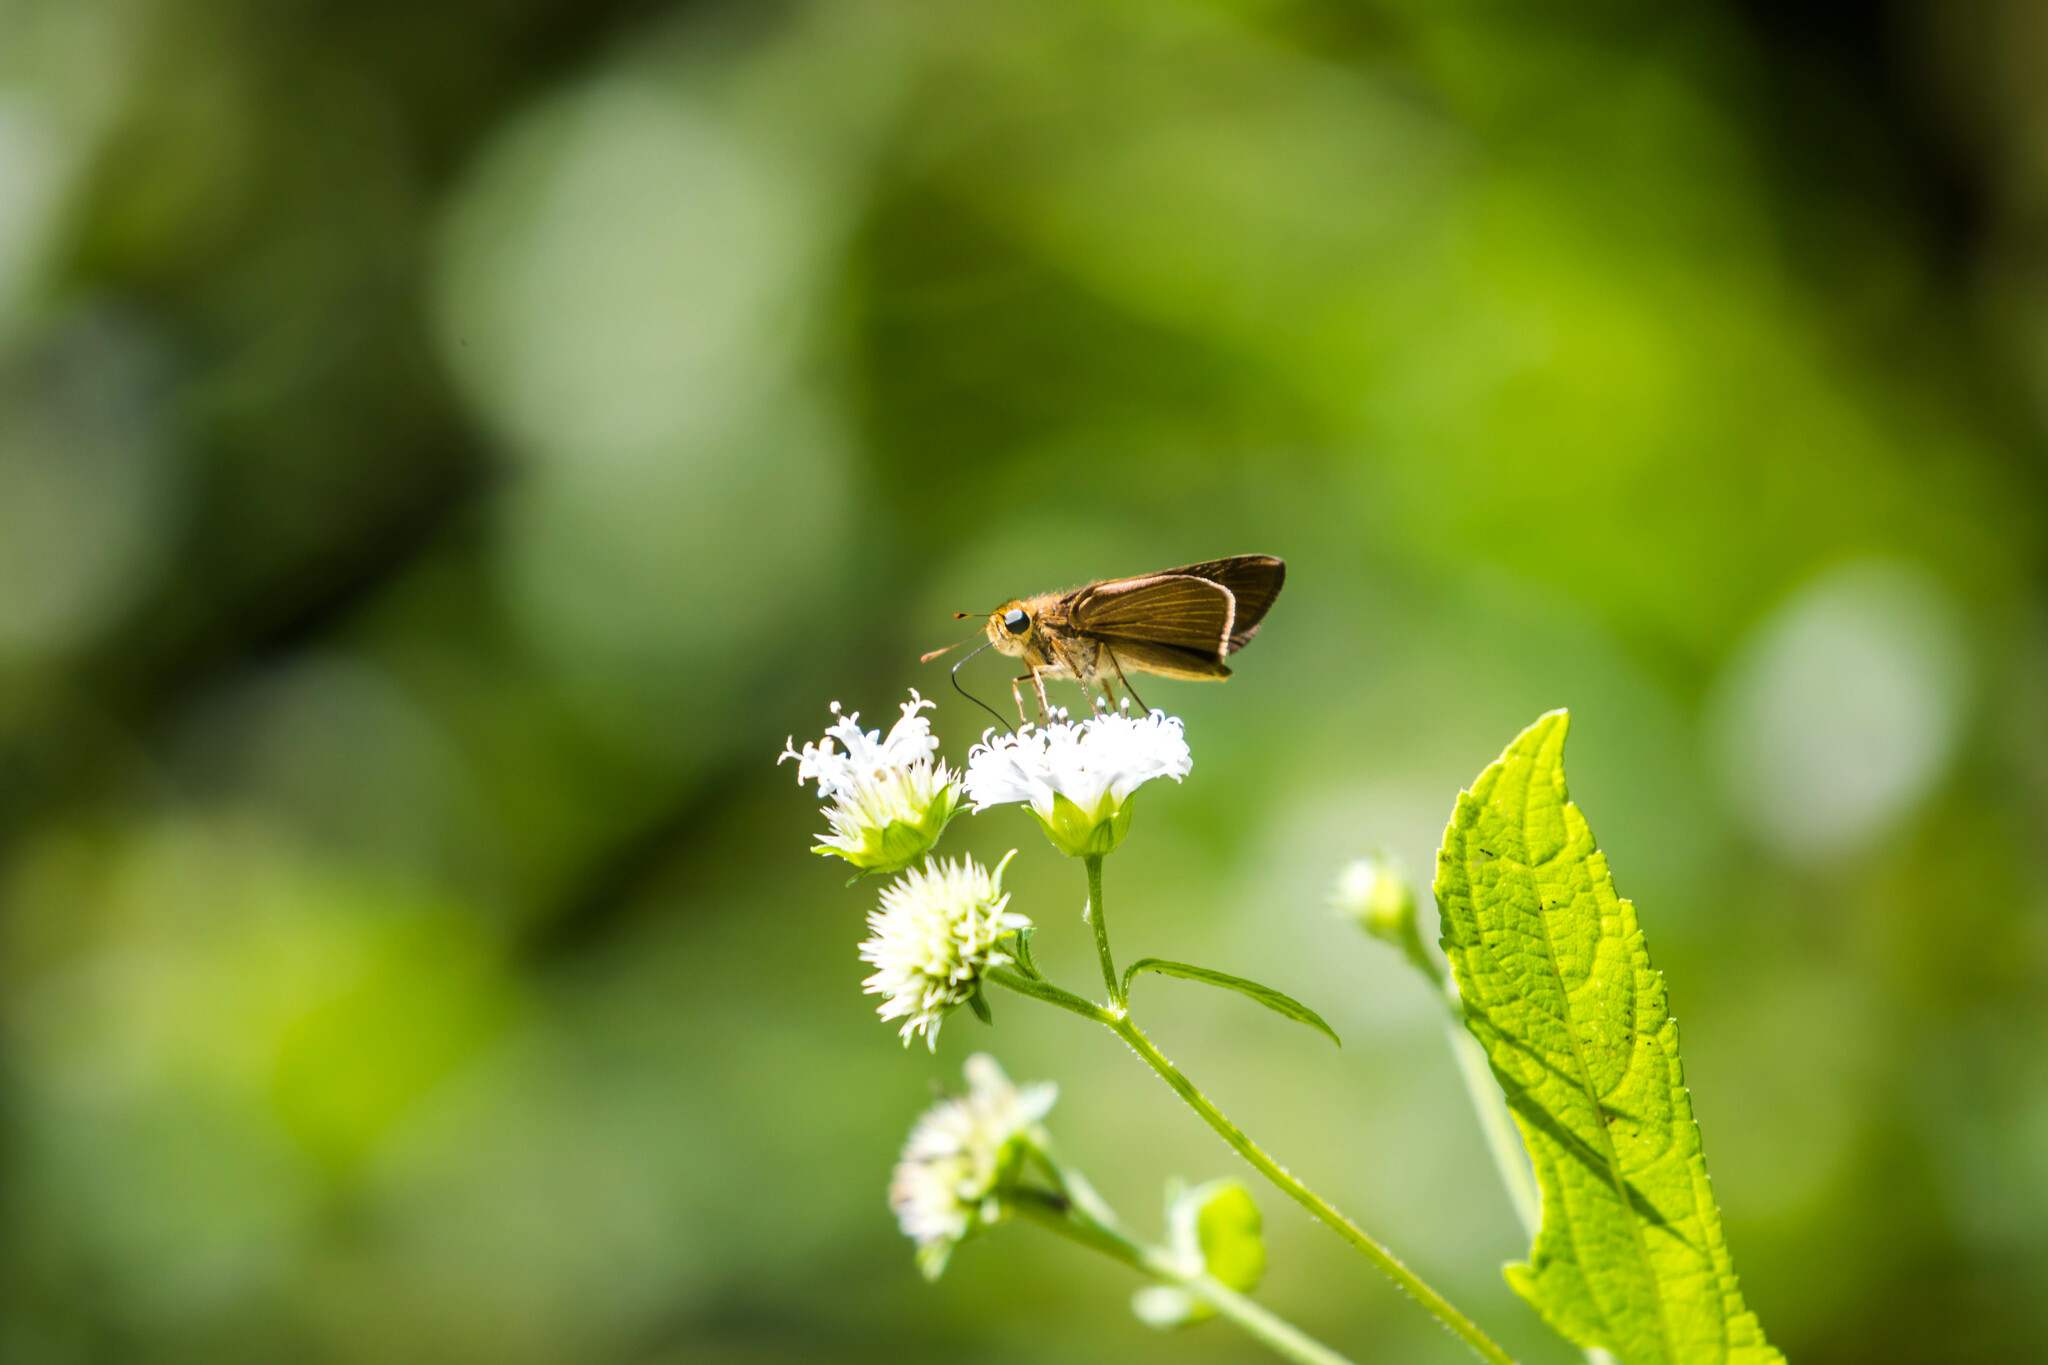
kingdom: Animalia
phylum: Arthropoda
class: Insecta
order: Lepidoptera
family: Hesperiidae
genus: Panoquina
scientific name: Panoquina ocola
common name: Ocola skipper
